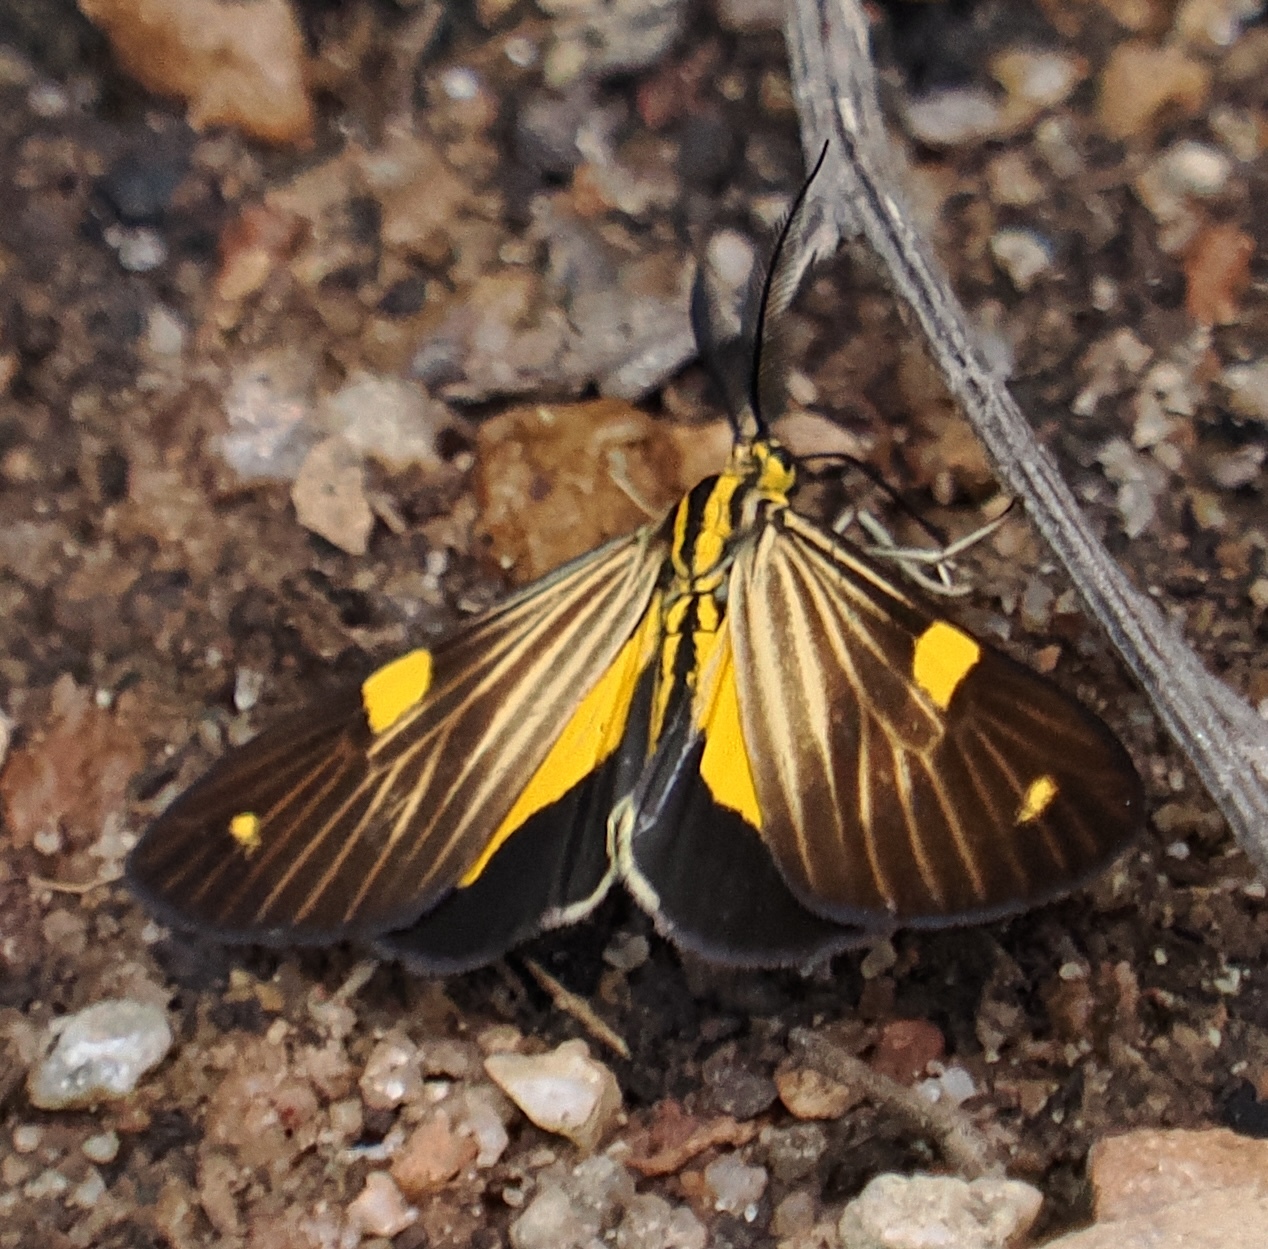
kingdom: Animalia
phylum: Arthropoda
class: Insecta
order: Lepidoptera
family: Notodontidae
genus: Phaeochlaena
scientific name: Phaeochlaena
